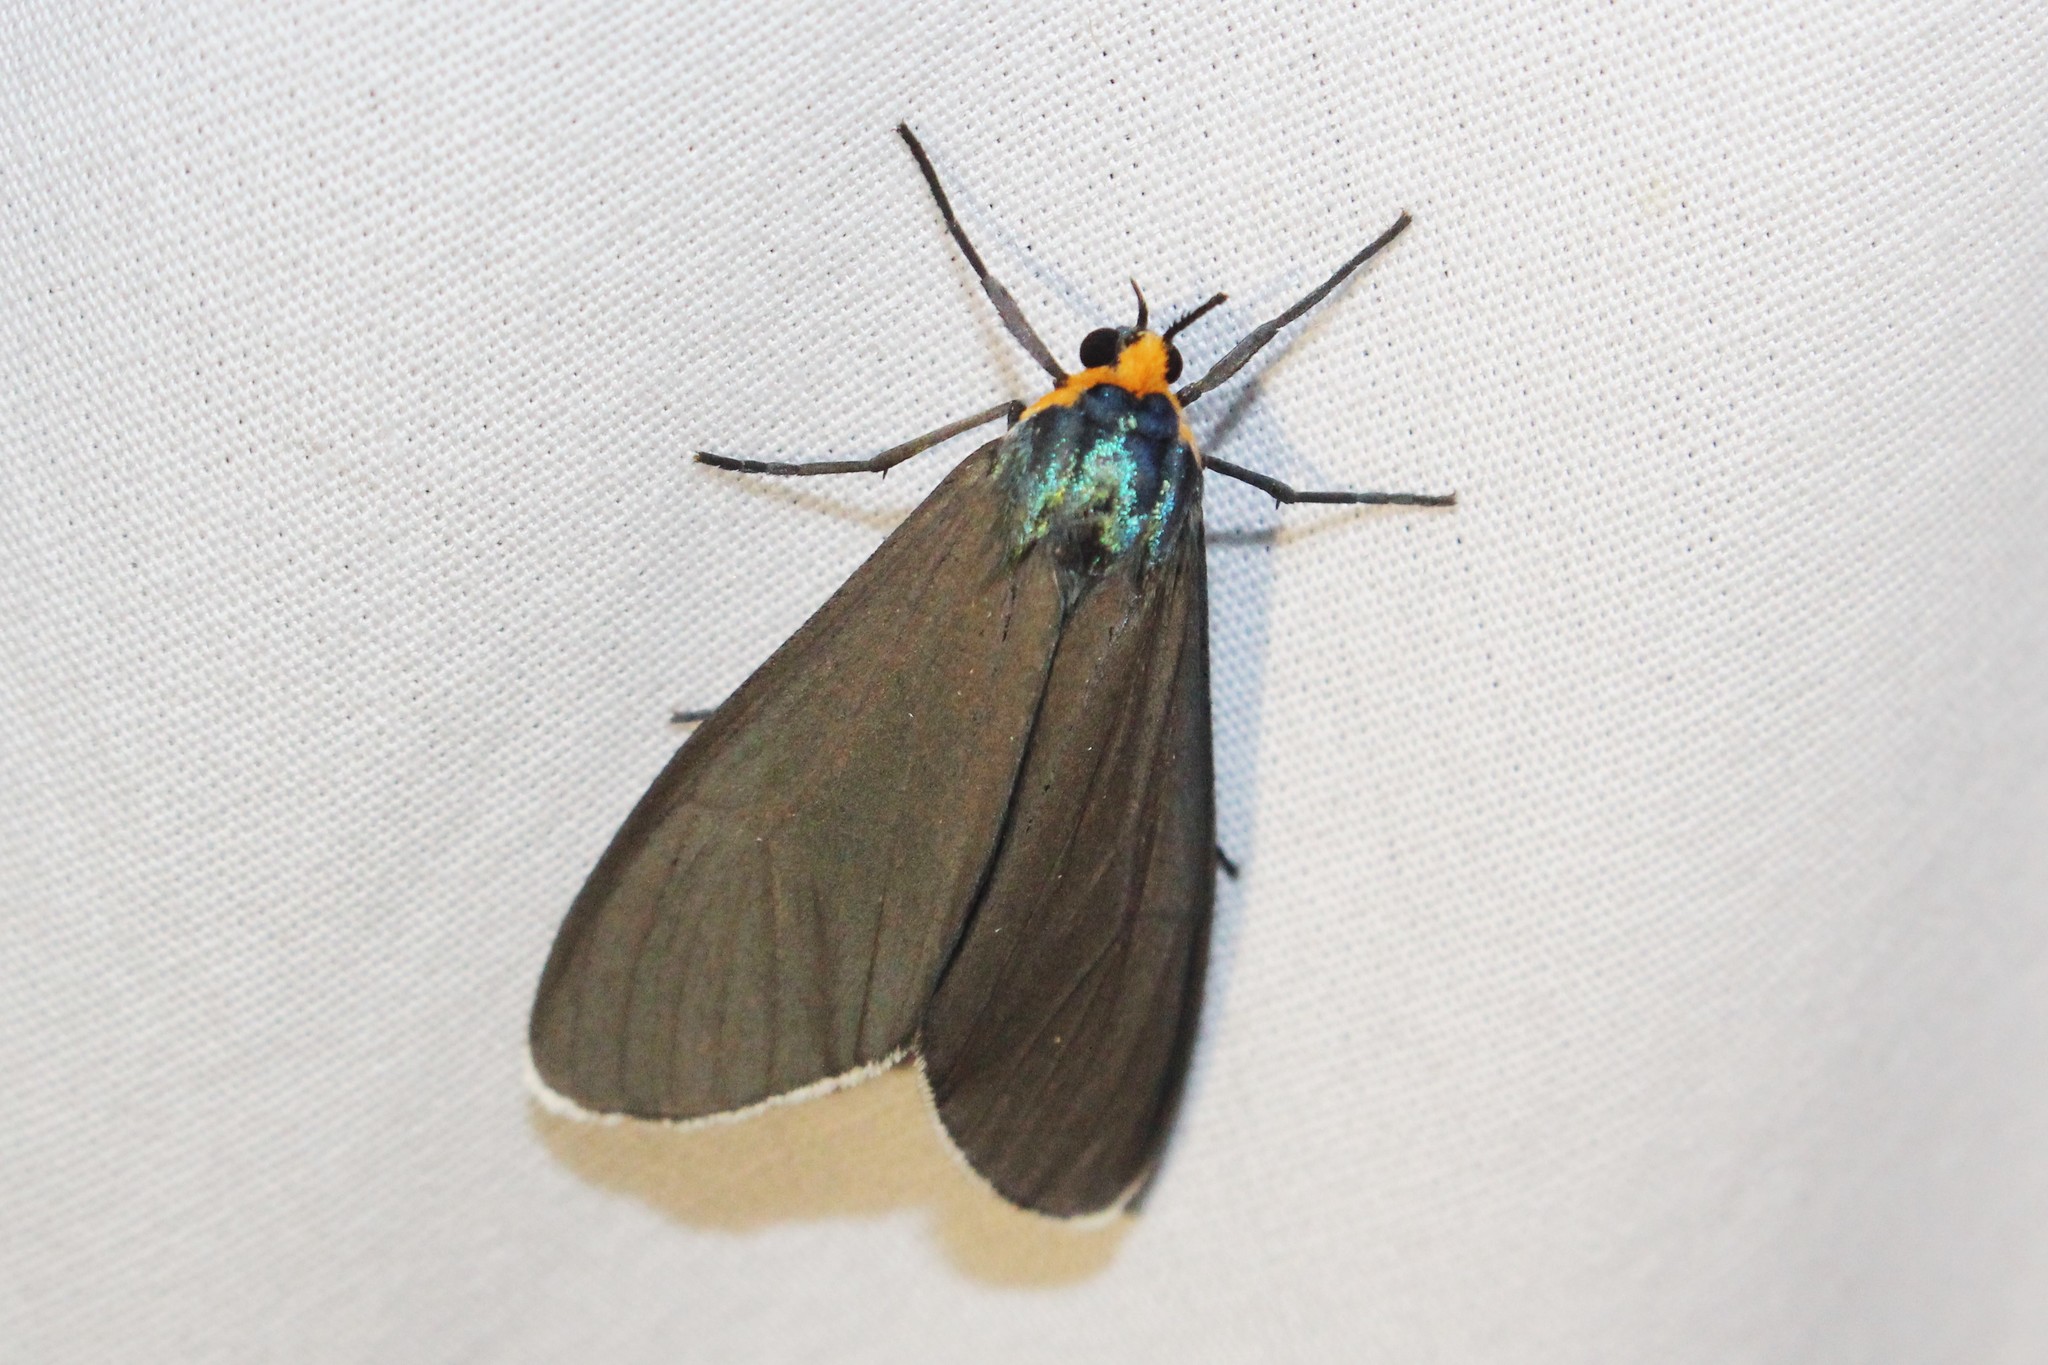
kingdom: Animalia
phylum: Arthropoda
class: Insecta
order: Lepidoptera
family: Erebidae
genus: Ctenucha
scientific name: Ctenucha virginica
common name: Virginia ctenucha moth
